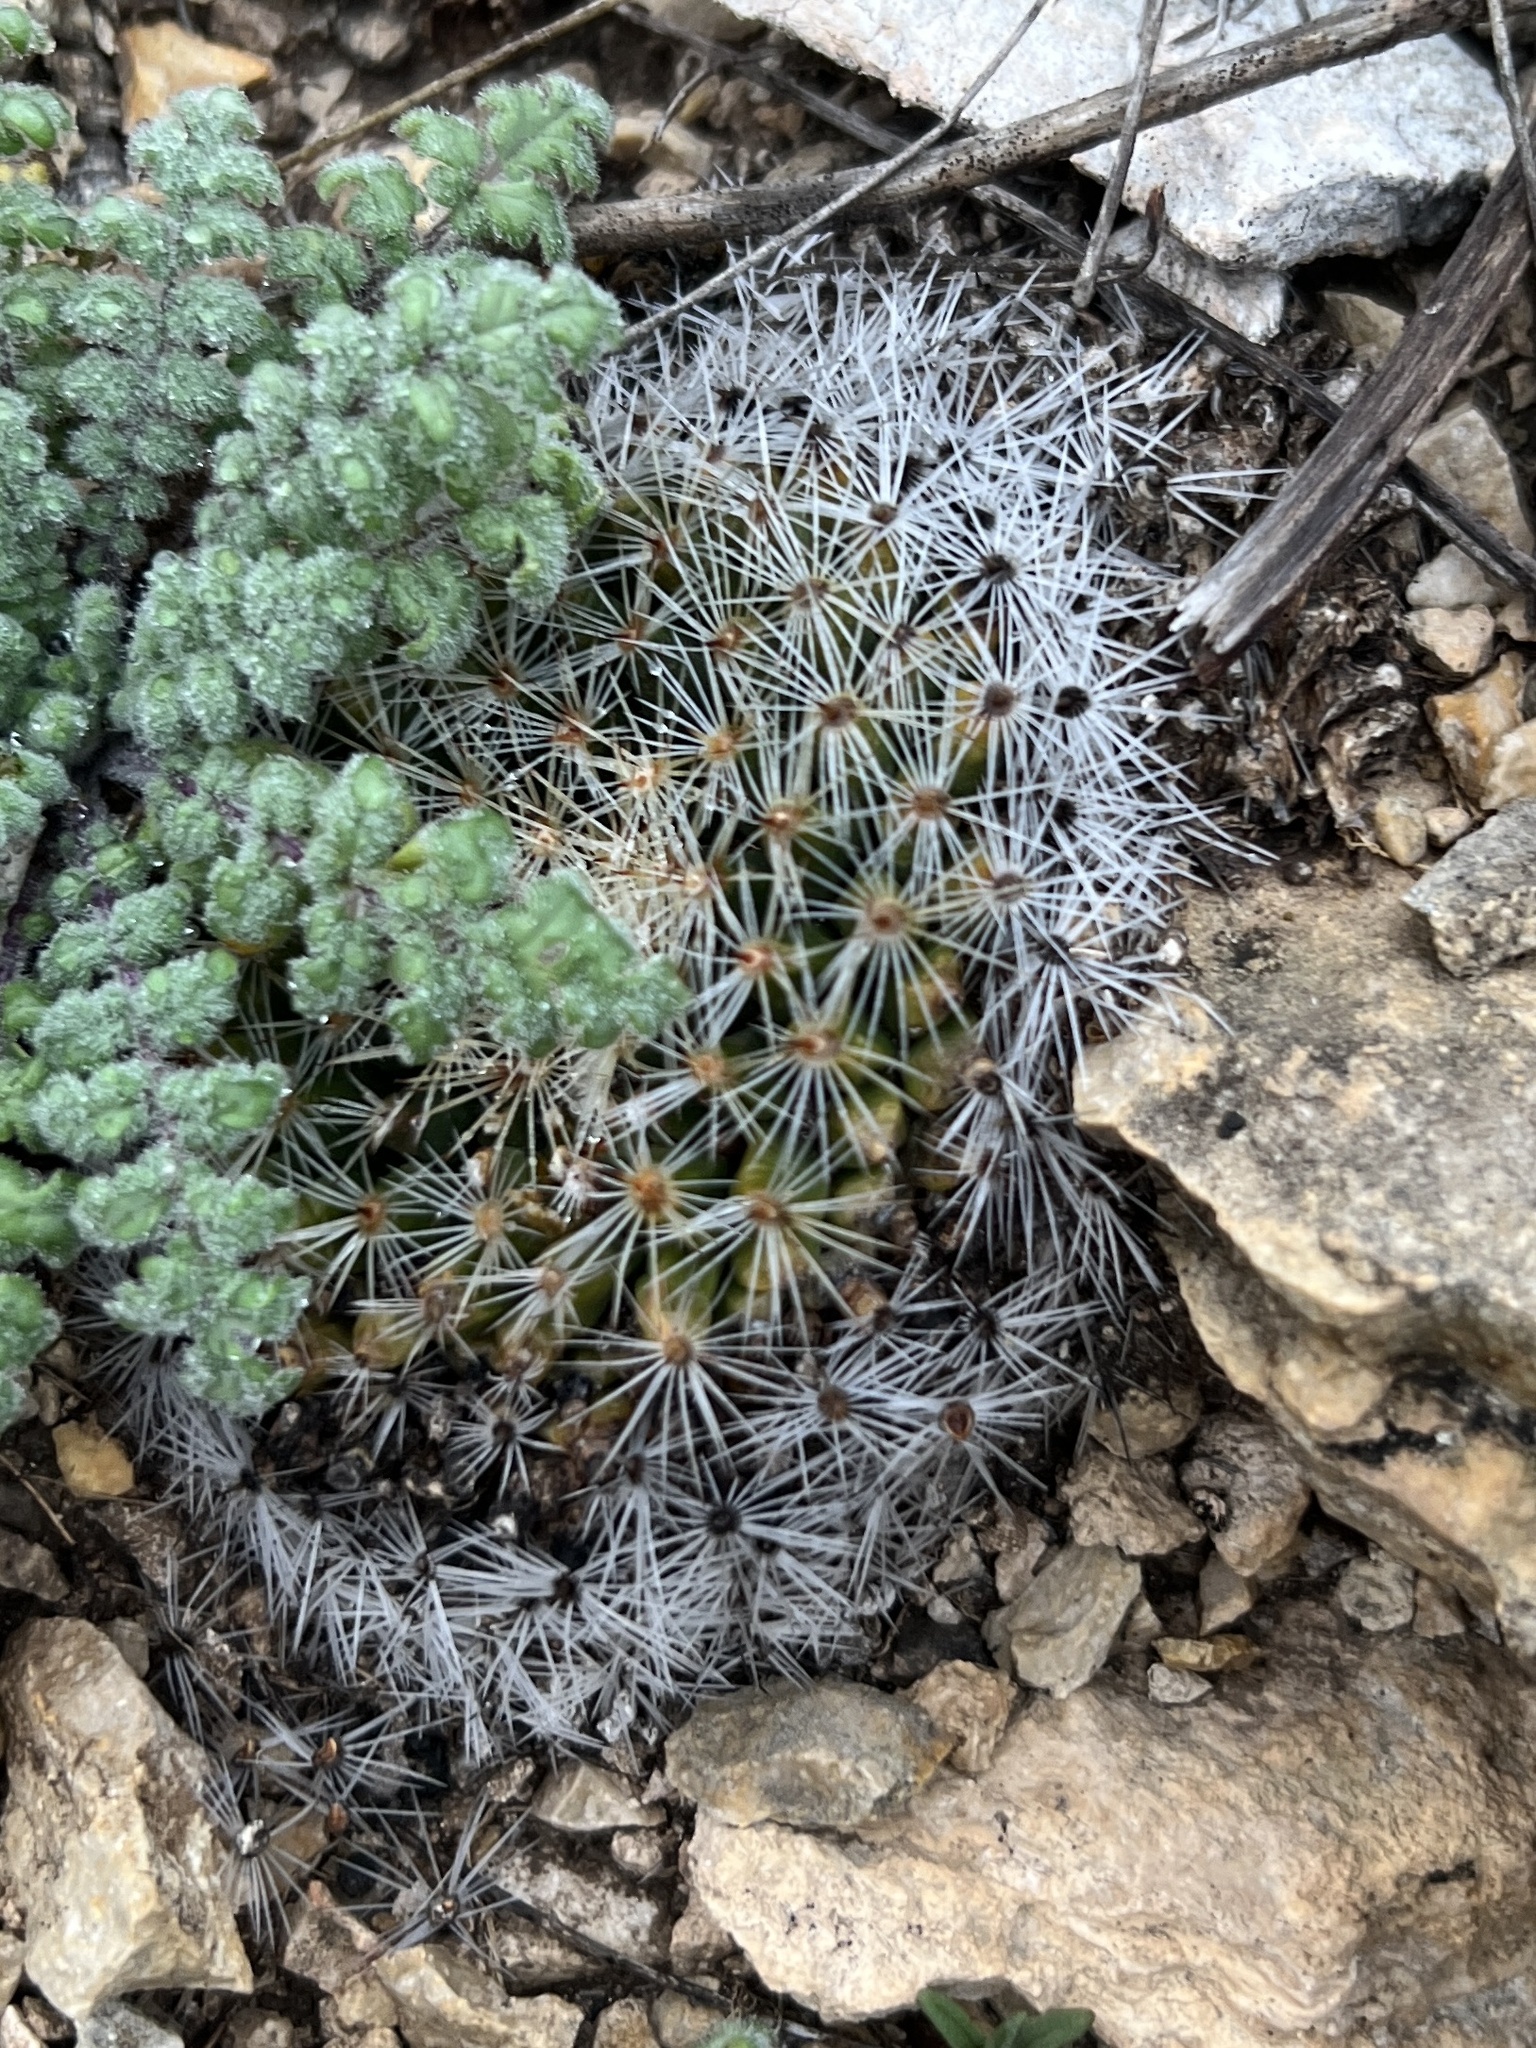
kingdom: Plantae
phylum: Tracheophyta
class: Magnoliopsida
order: Caryophyllales
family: Cactaceae
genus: Mammillaria
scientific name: Mammillaria heyderi
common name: Little nipple cactus
